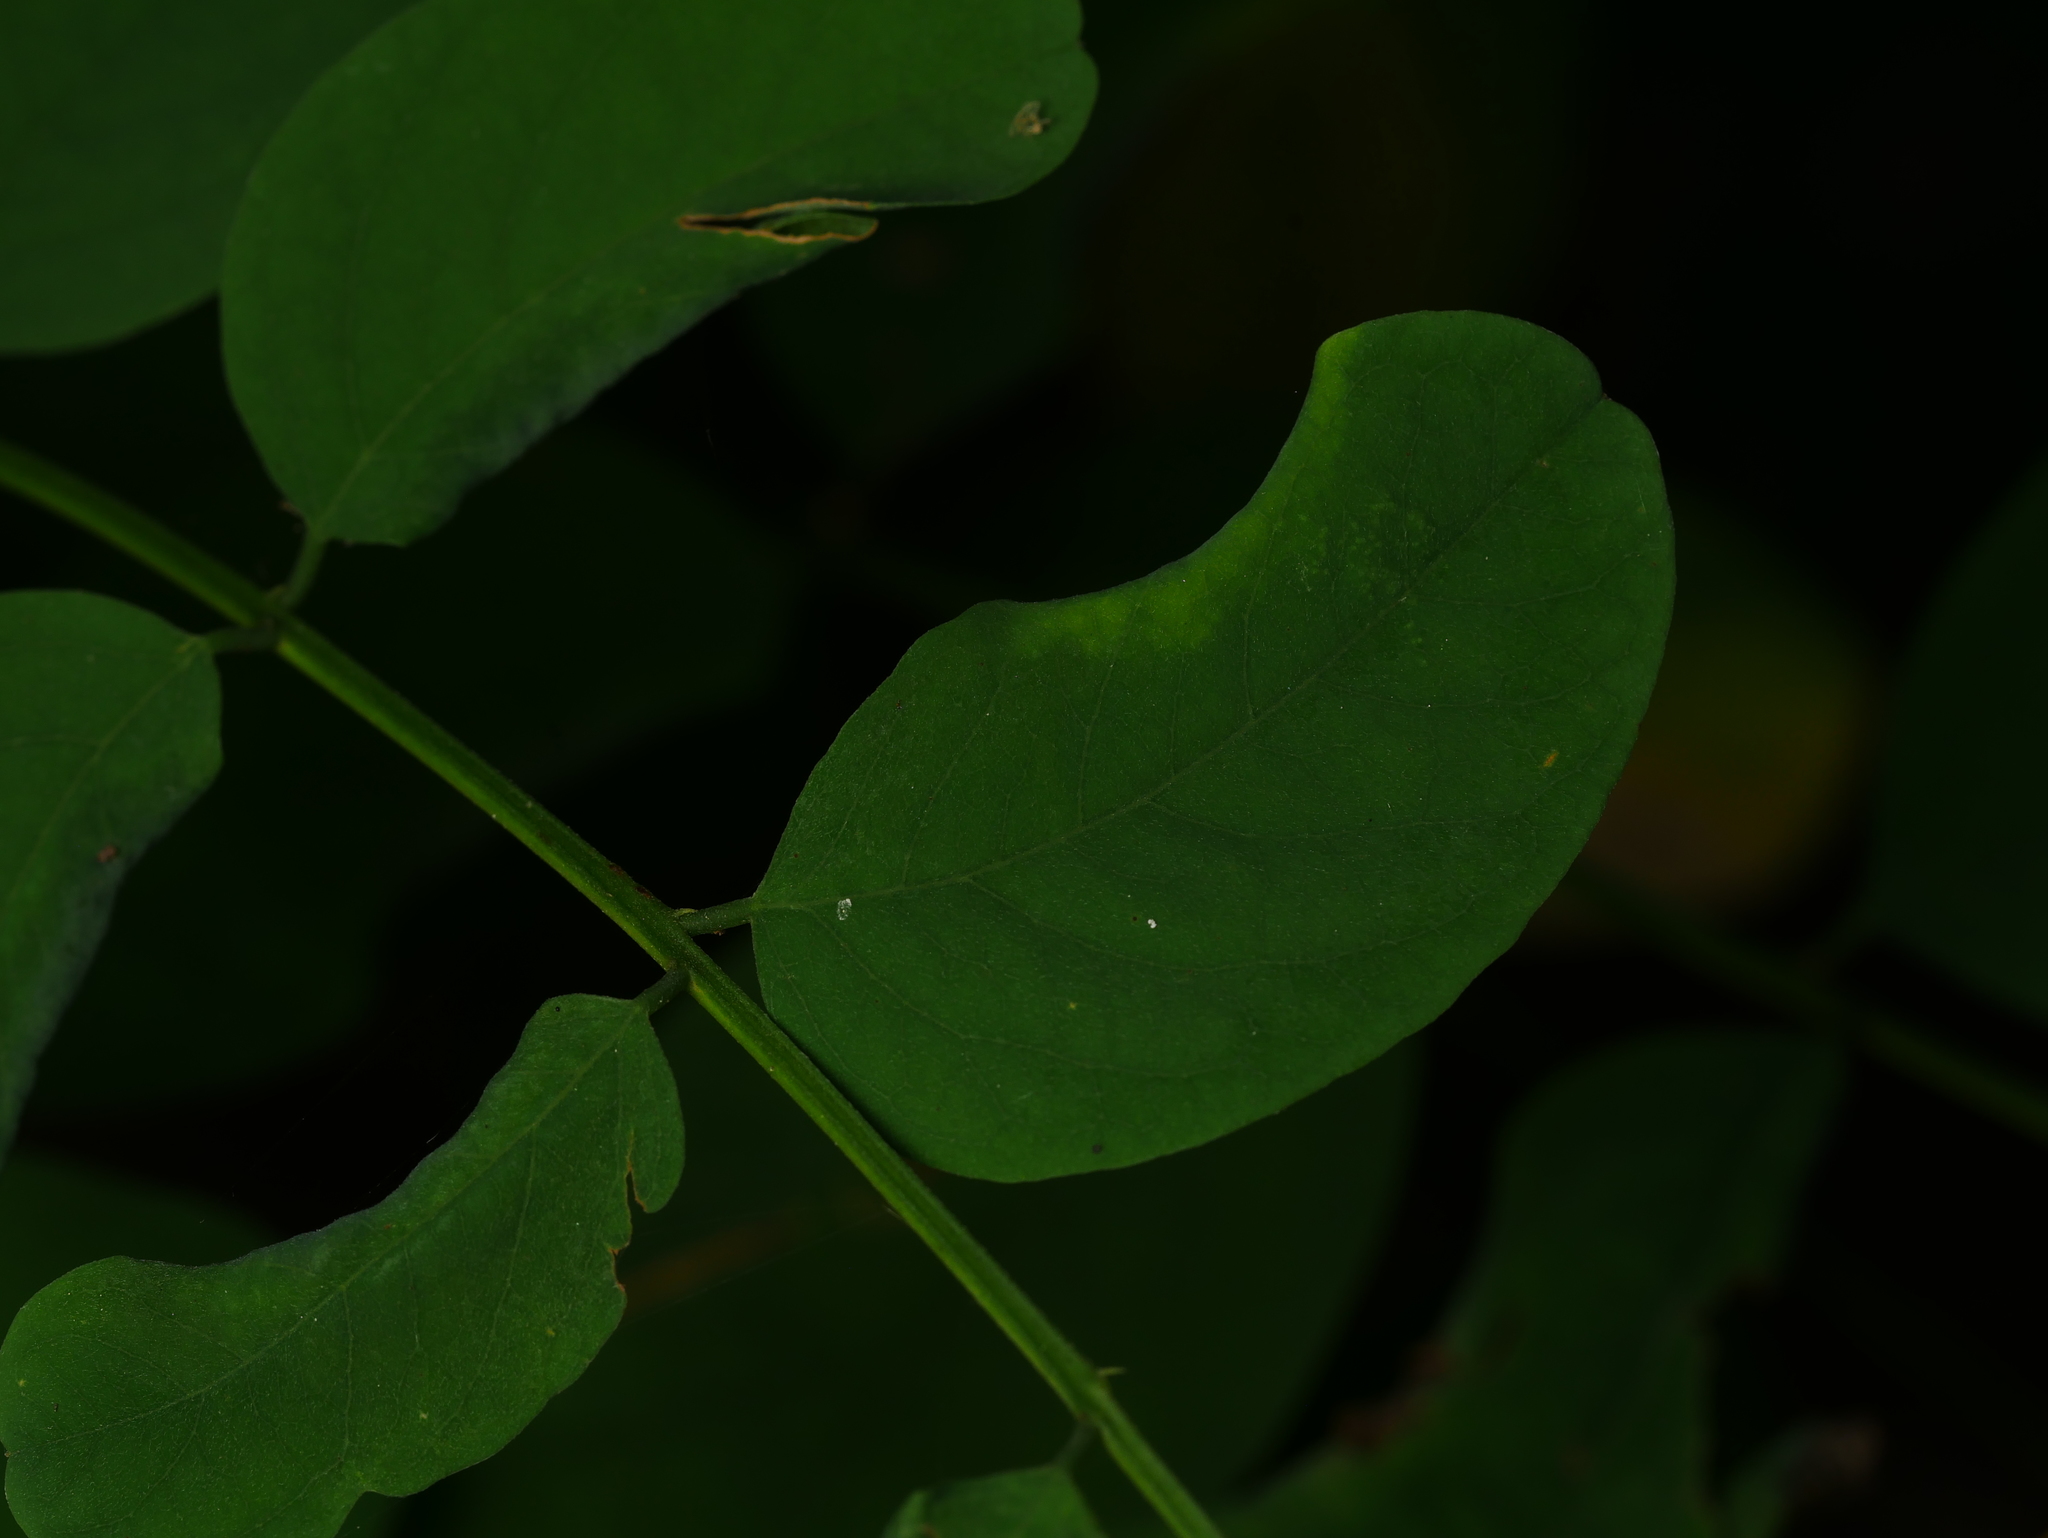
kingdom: Animalia
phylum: Arthropoda
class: Insecta
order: Diptera
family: Cecidomyiidae
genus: Obolodiplosis
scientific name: Obolodiplosis robiniae
